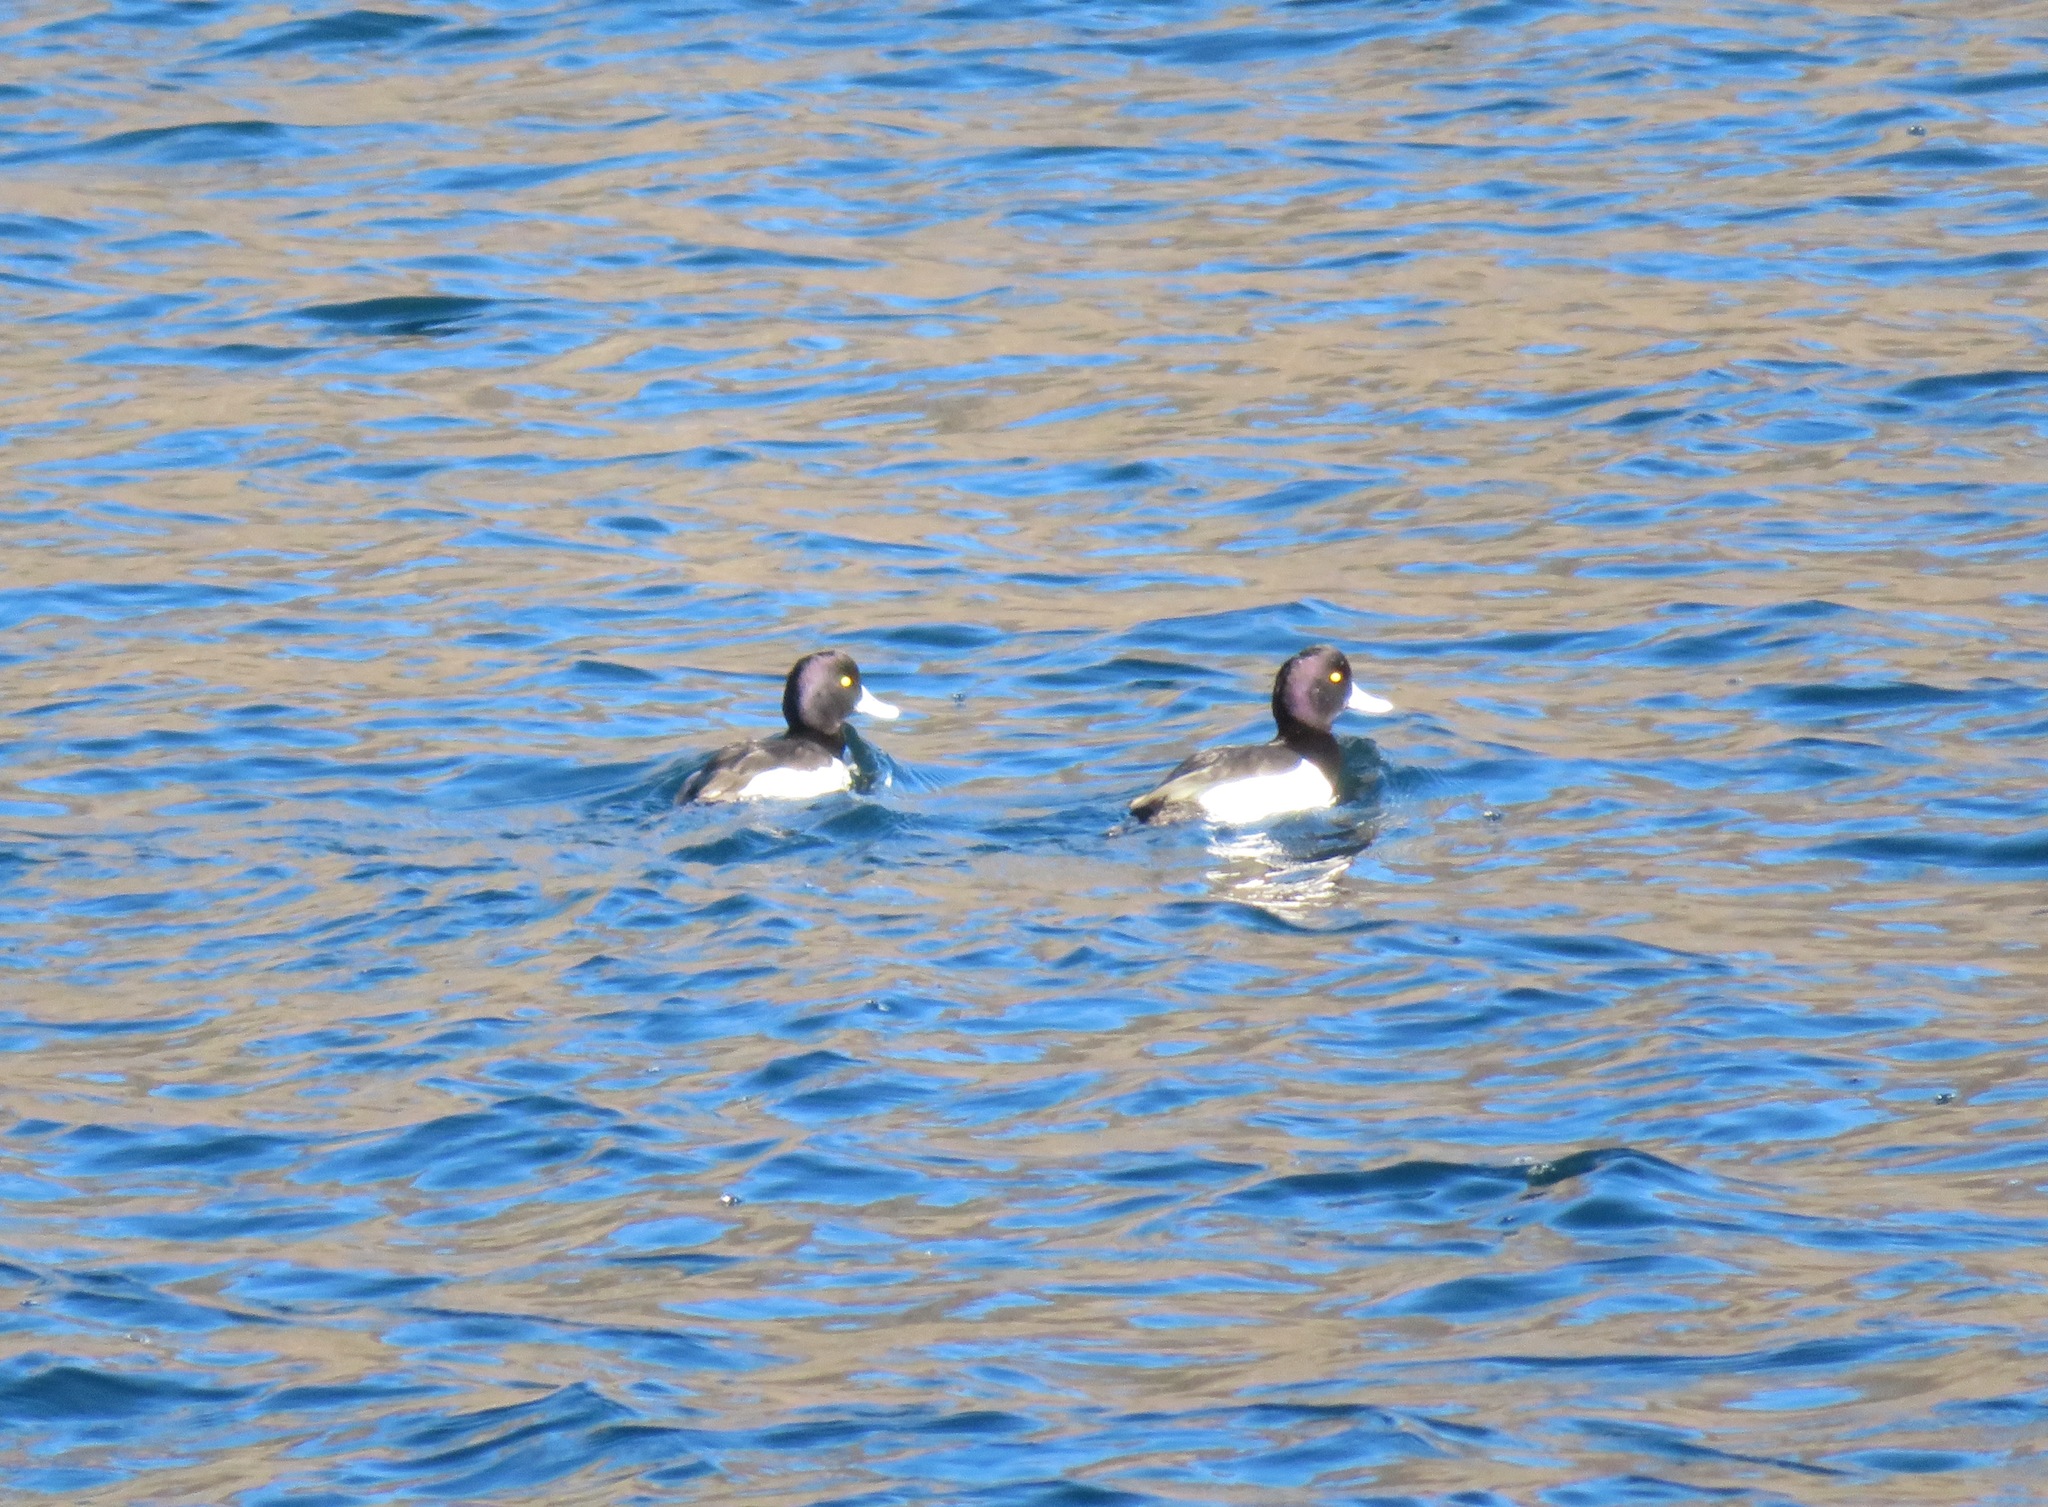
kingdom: Animalia
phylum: Chordata
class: Aves
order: Anseriformes
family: Anatidae
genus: Aythya
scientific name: Aythya fuligula
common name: Tufted duck
